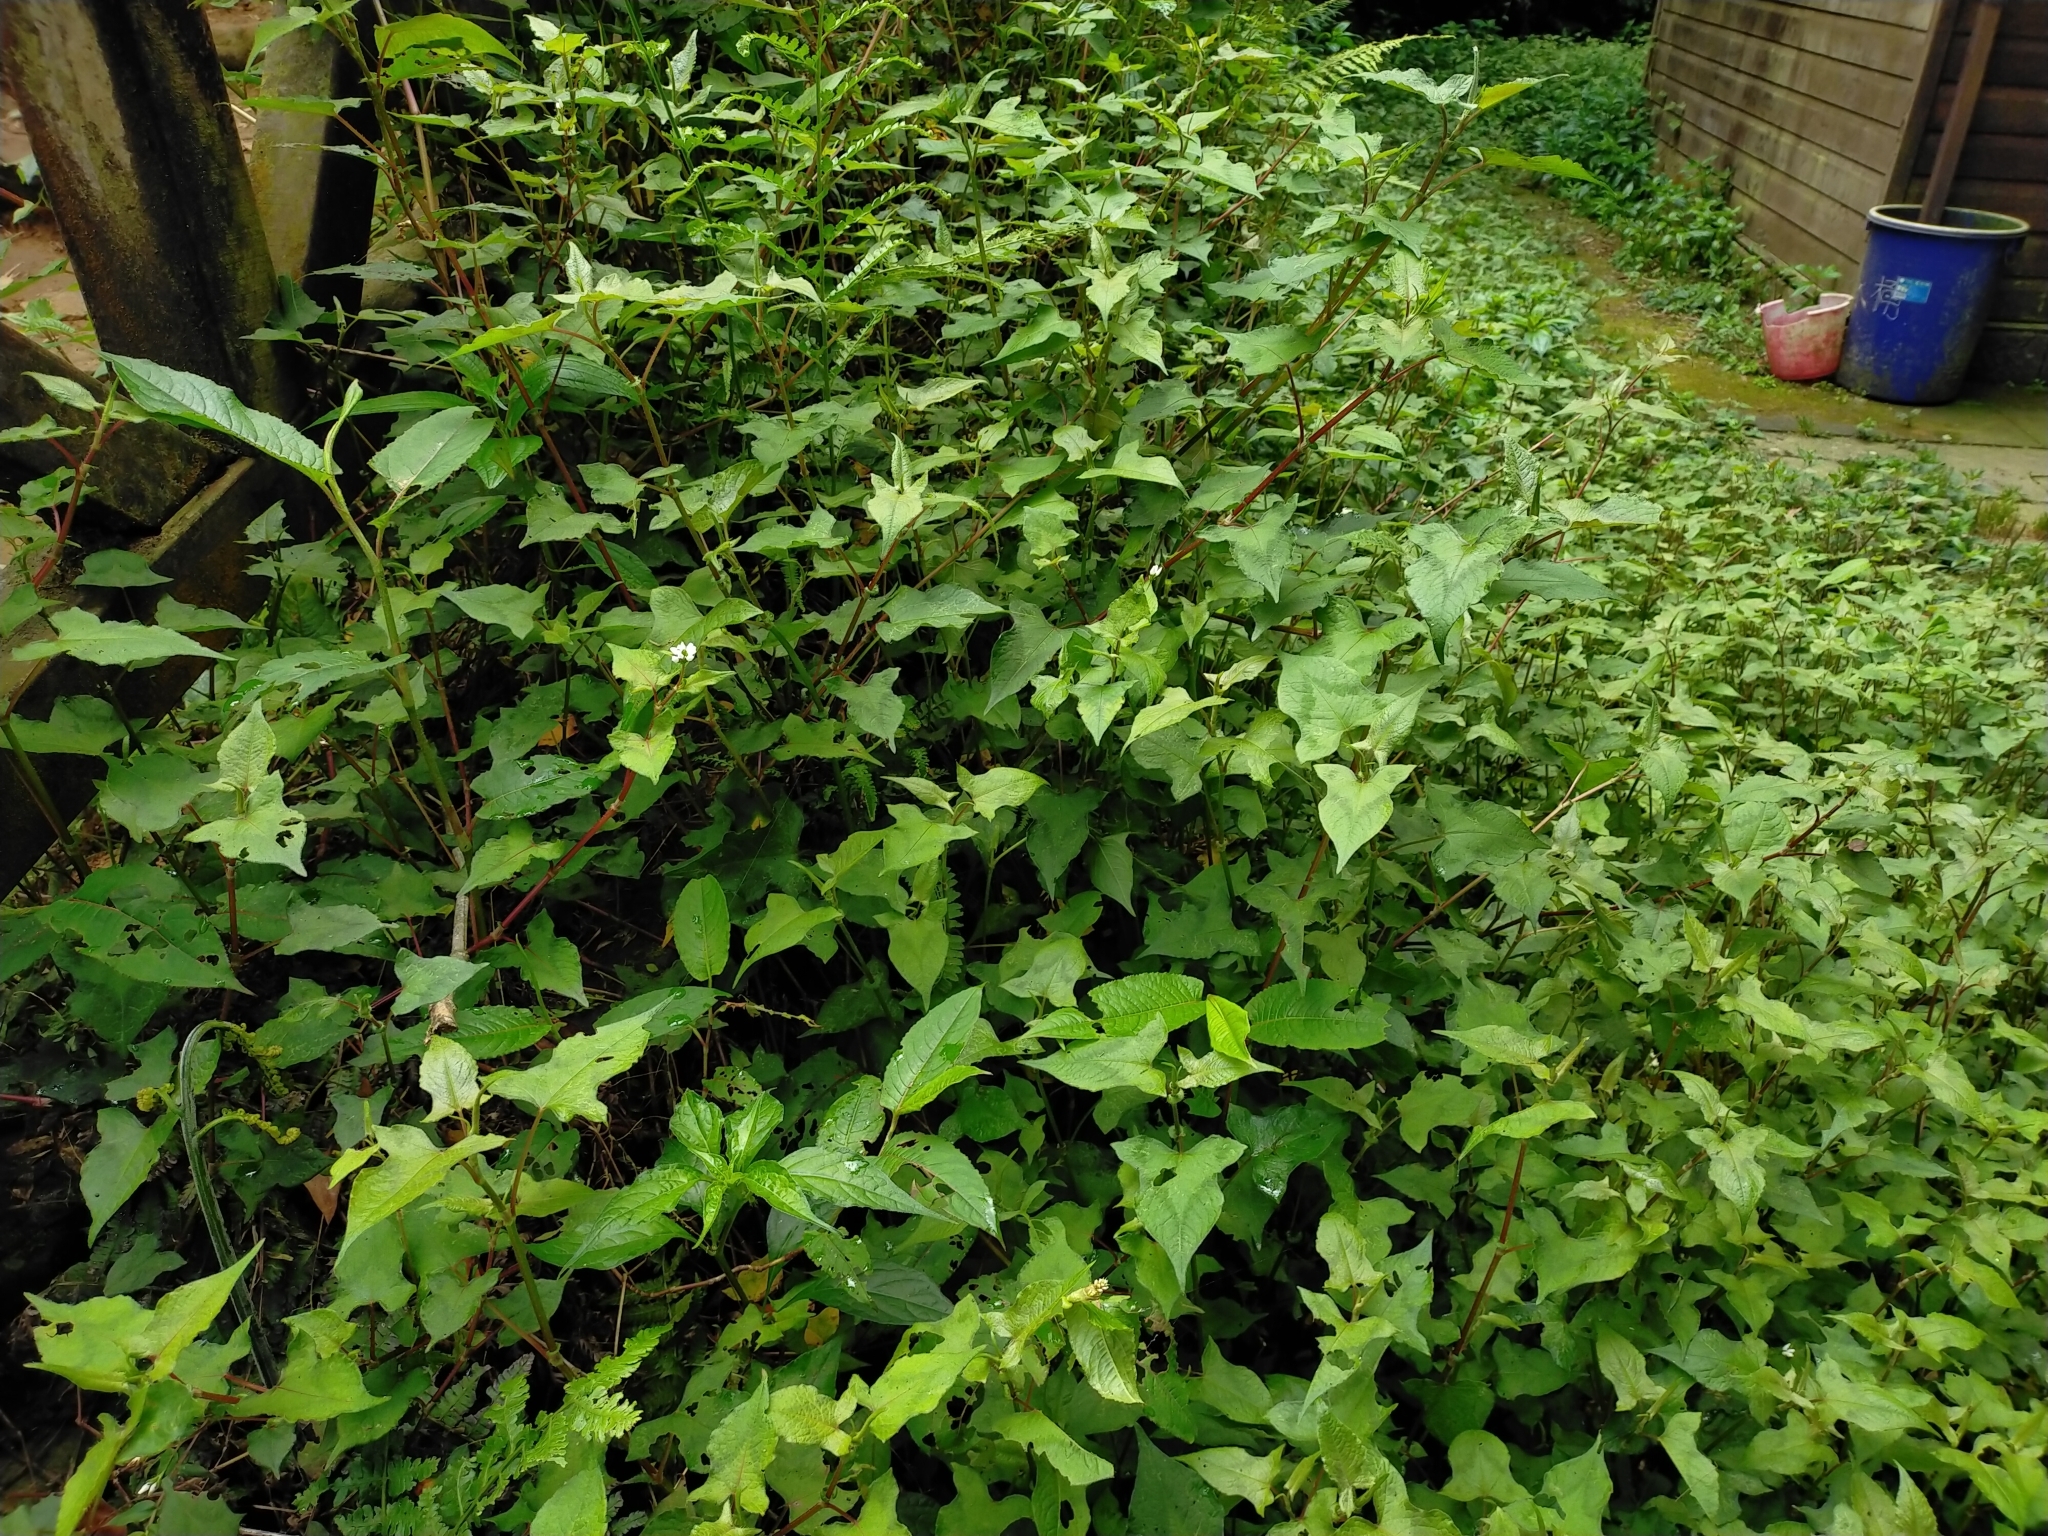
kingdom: Plantae
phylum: Tracheophyta
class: Magnoliopsida
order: Caryophyllales
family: Polygonaceae
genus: Persicaria
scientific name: Persicaria biconvexa
